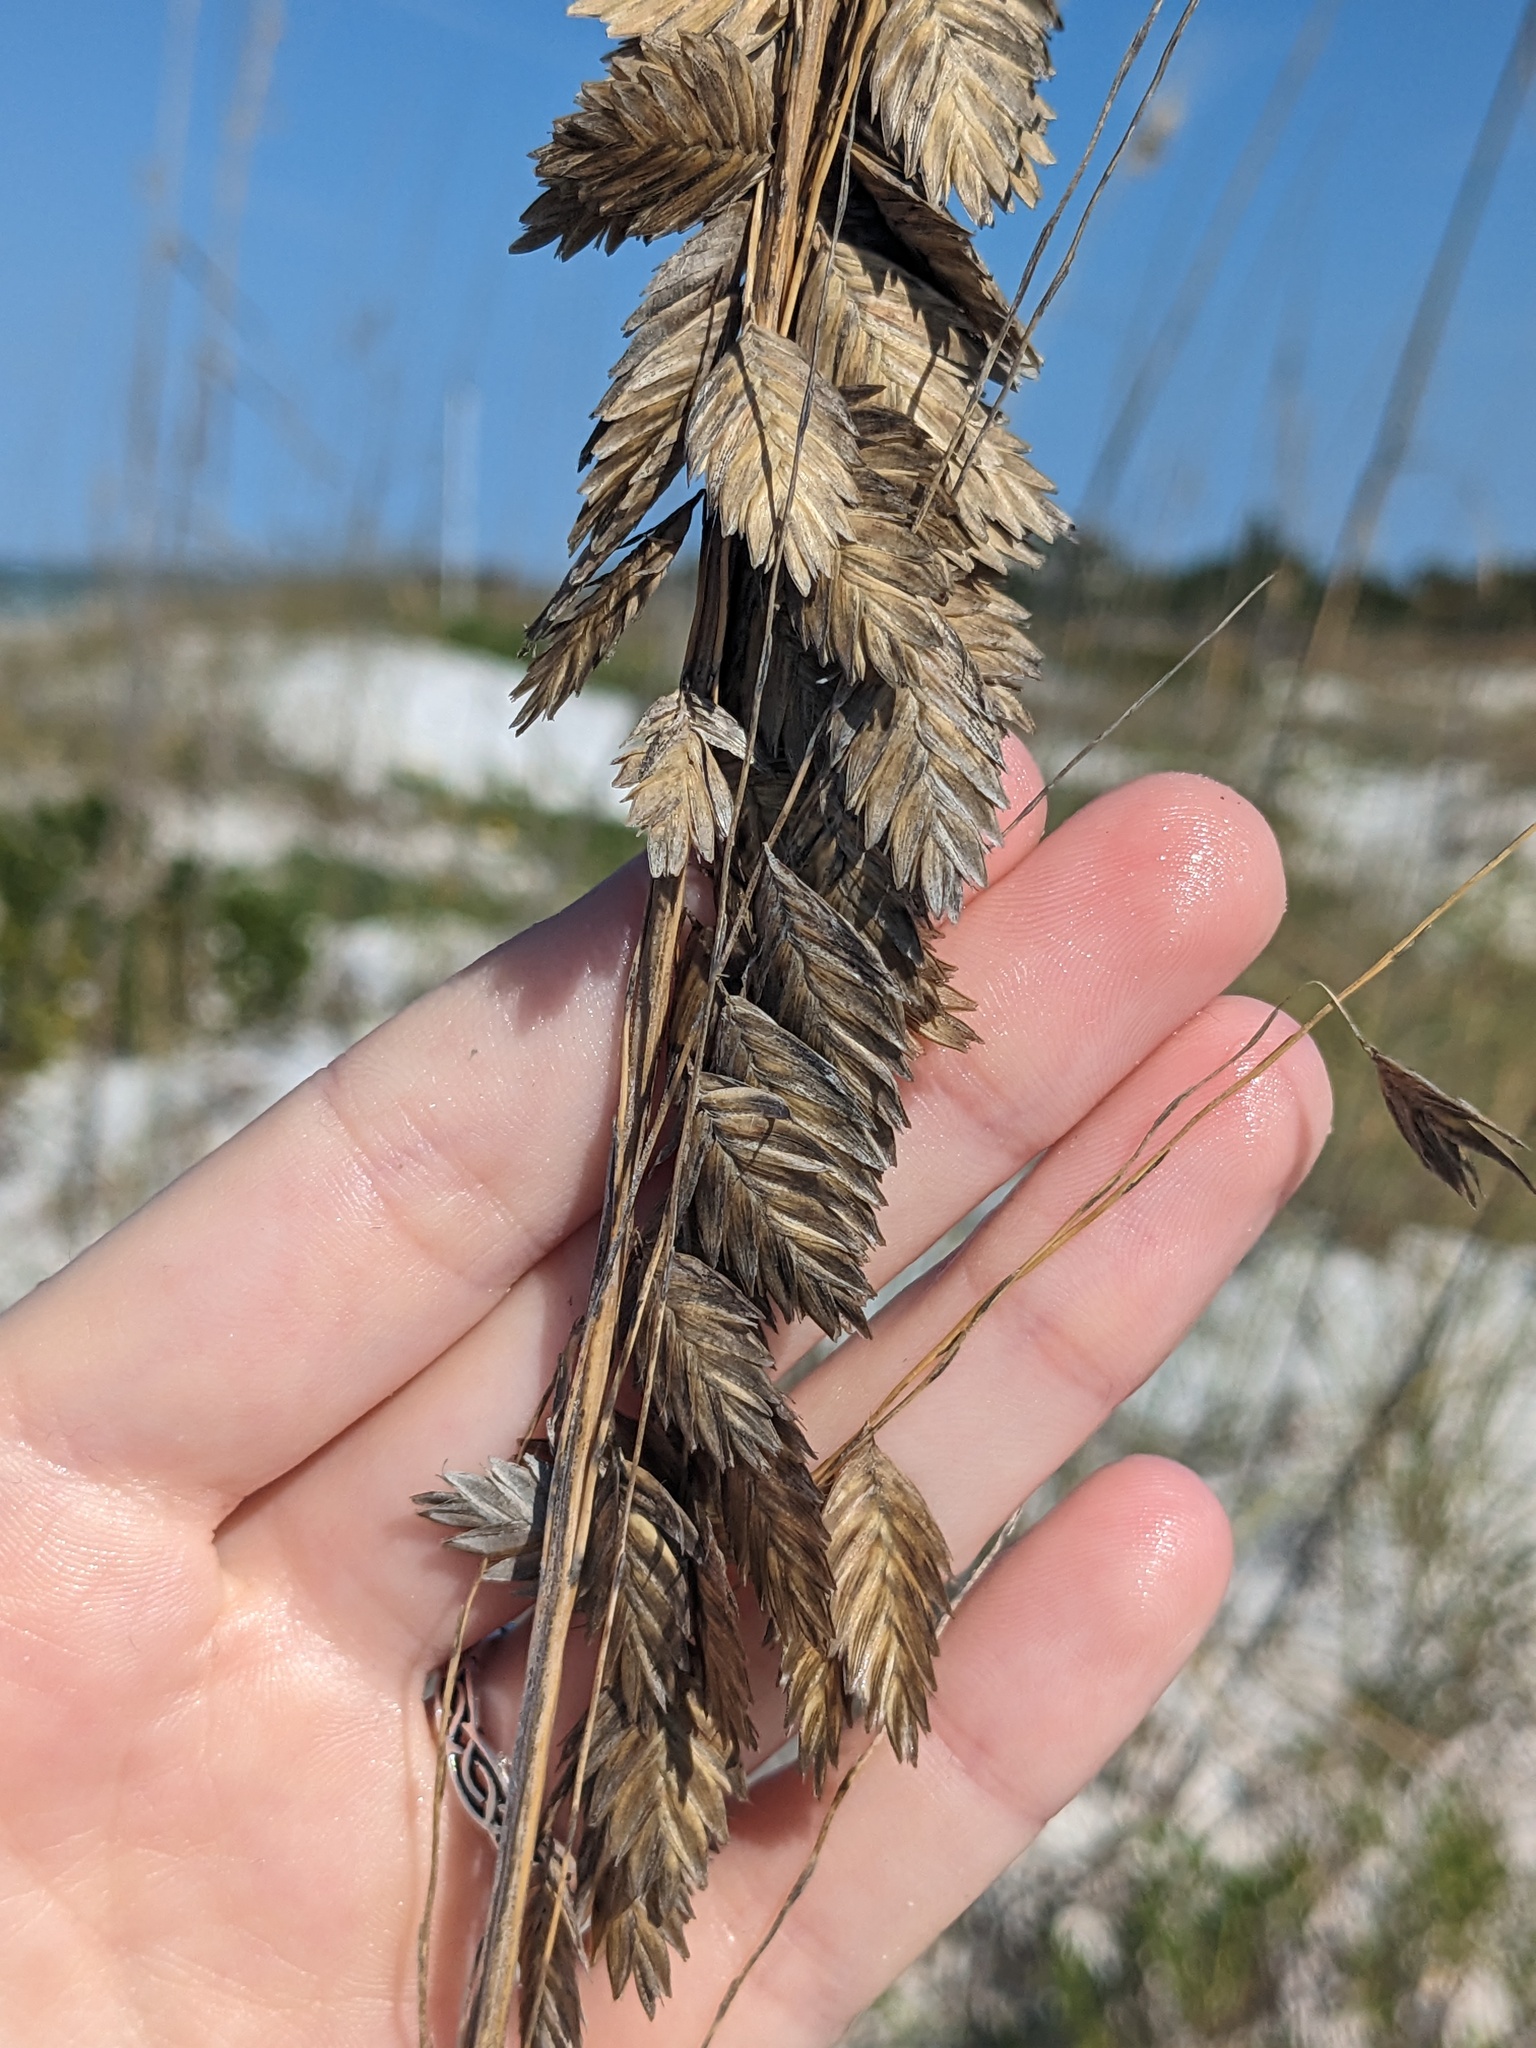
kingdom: Plantae
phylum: Tracheophyta
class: Liliopsida
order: Poales
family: Poaceae
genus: Uniola
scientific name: Uniola paniculata
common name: Seaside-oats
